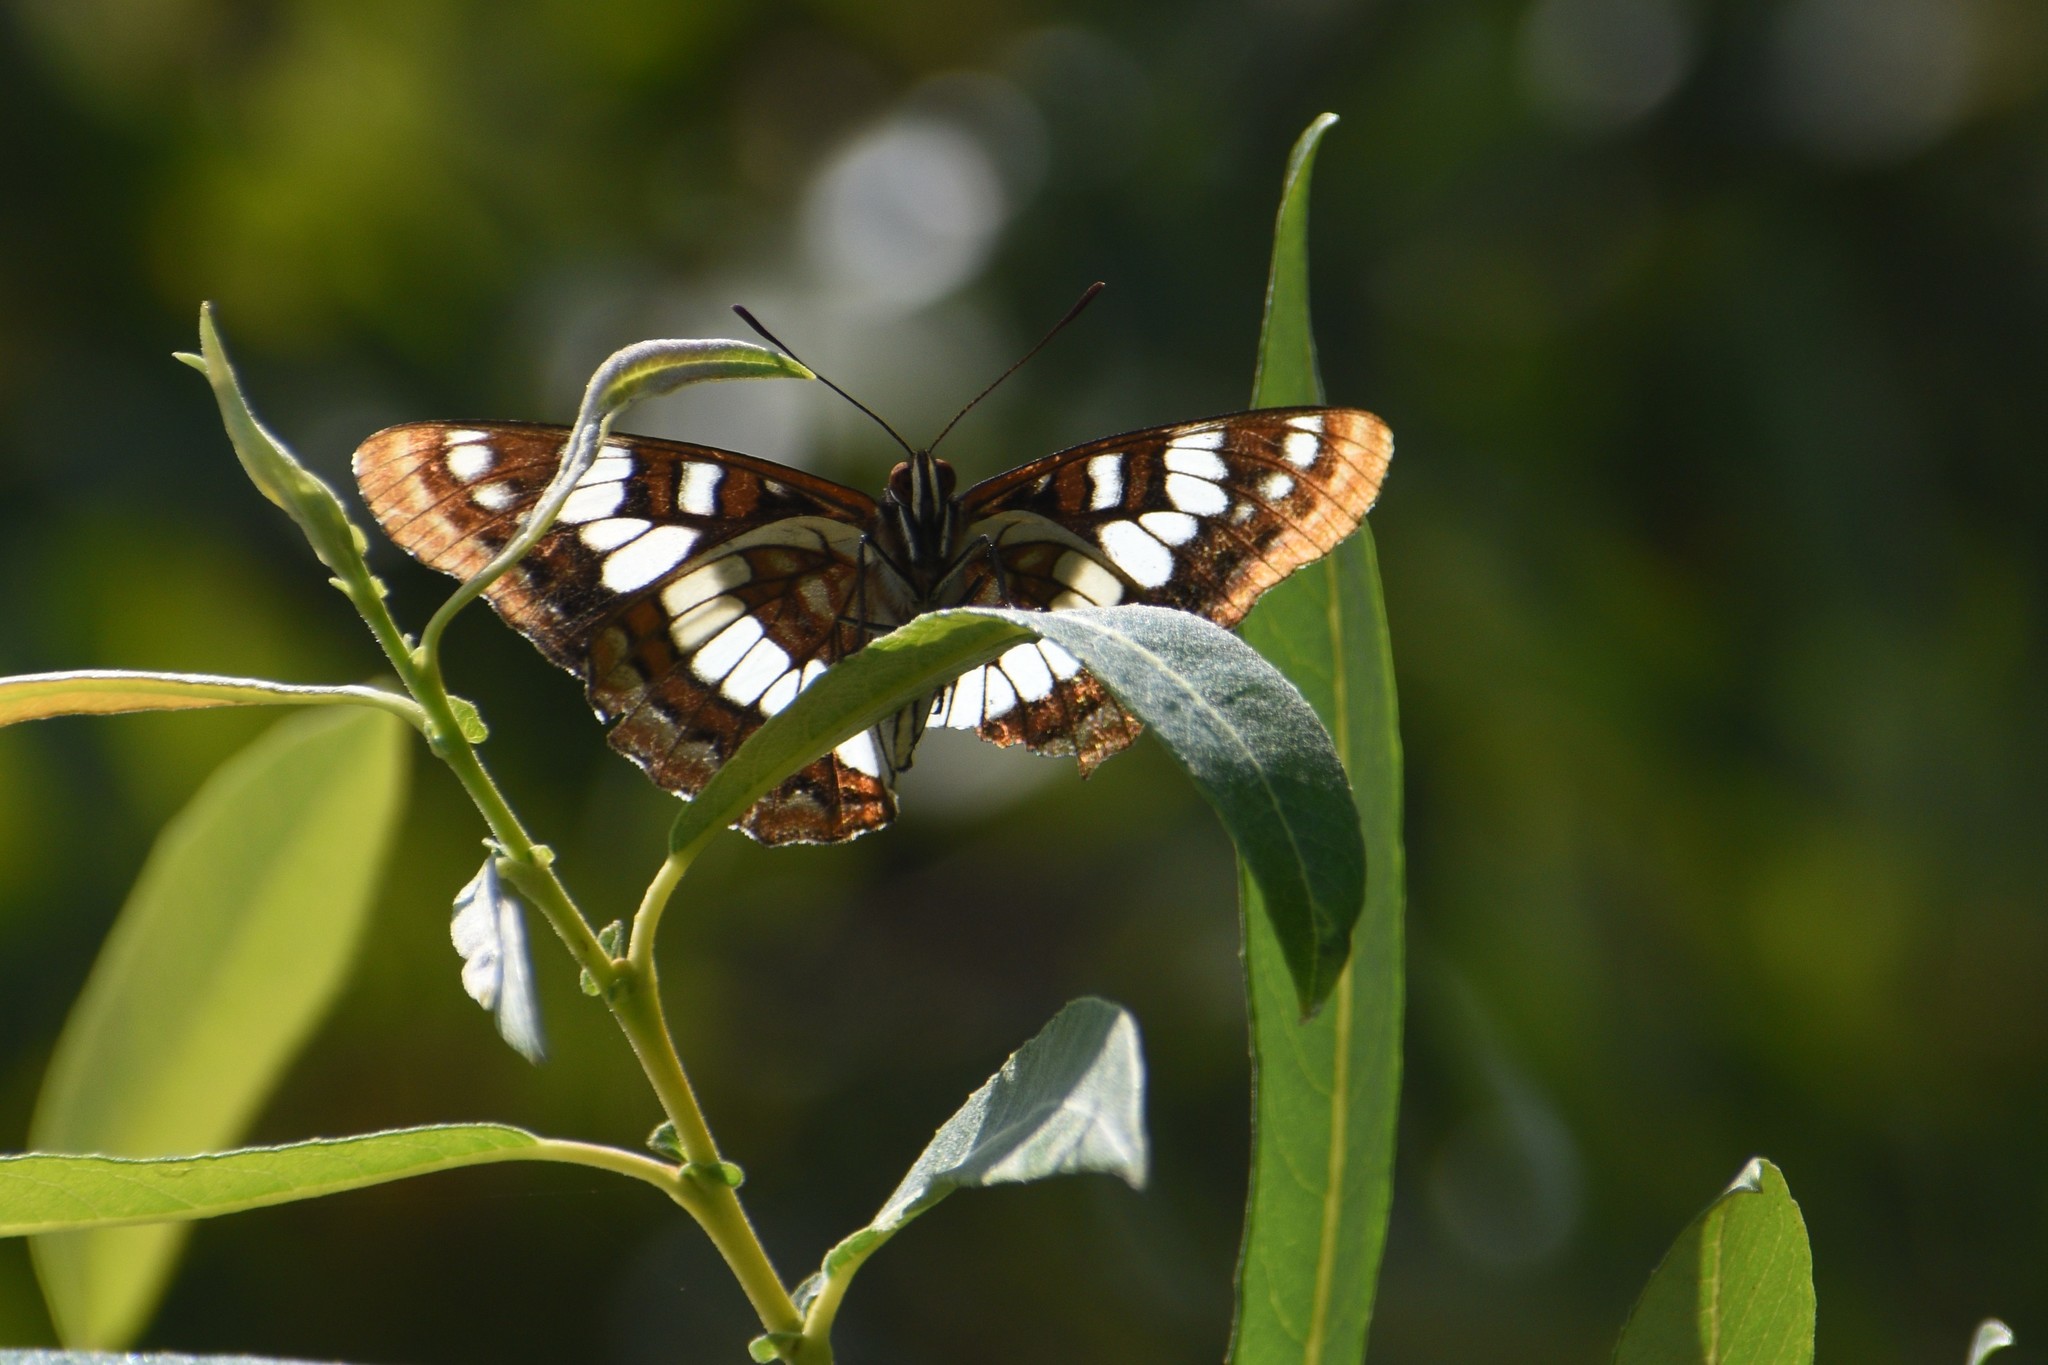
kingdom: Animalia
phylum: Arthropoda
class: Insecta
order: Lepidoptera
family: Nymphalidae
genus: Limenitis
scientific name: Limenitis lorquini
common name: Lorquin's admiral
